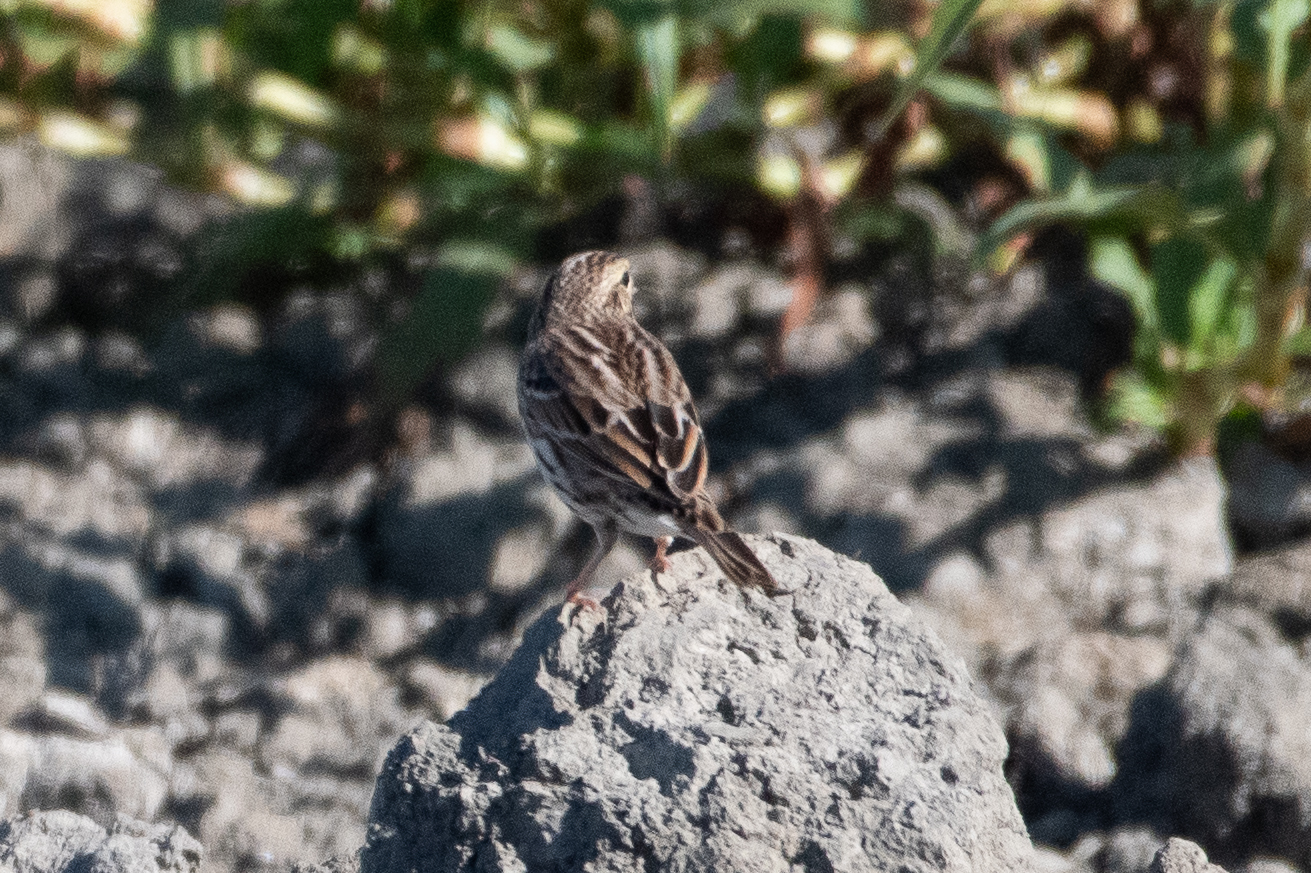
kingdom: Animalia
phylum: Chordata
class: Aves
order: Passeriformes
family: Passerellidae
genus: Passerculus
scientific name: Passerculus sandwichensis
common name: Savannah sparrow
